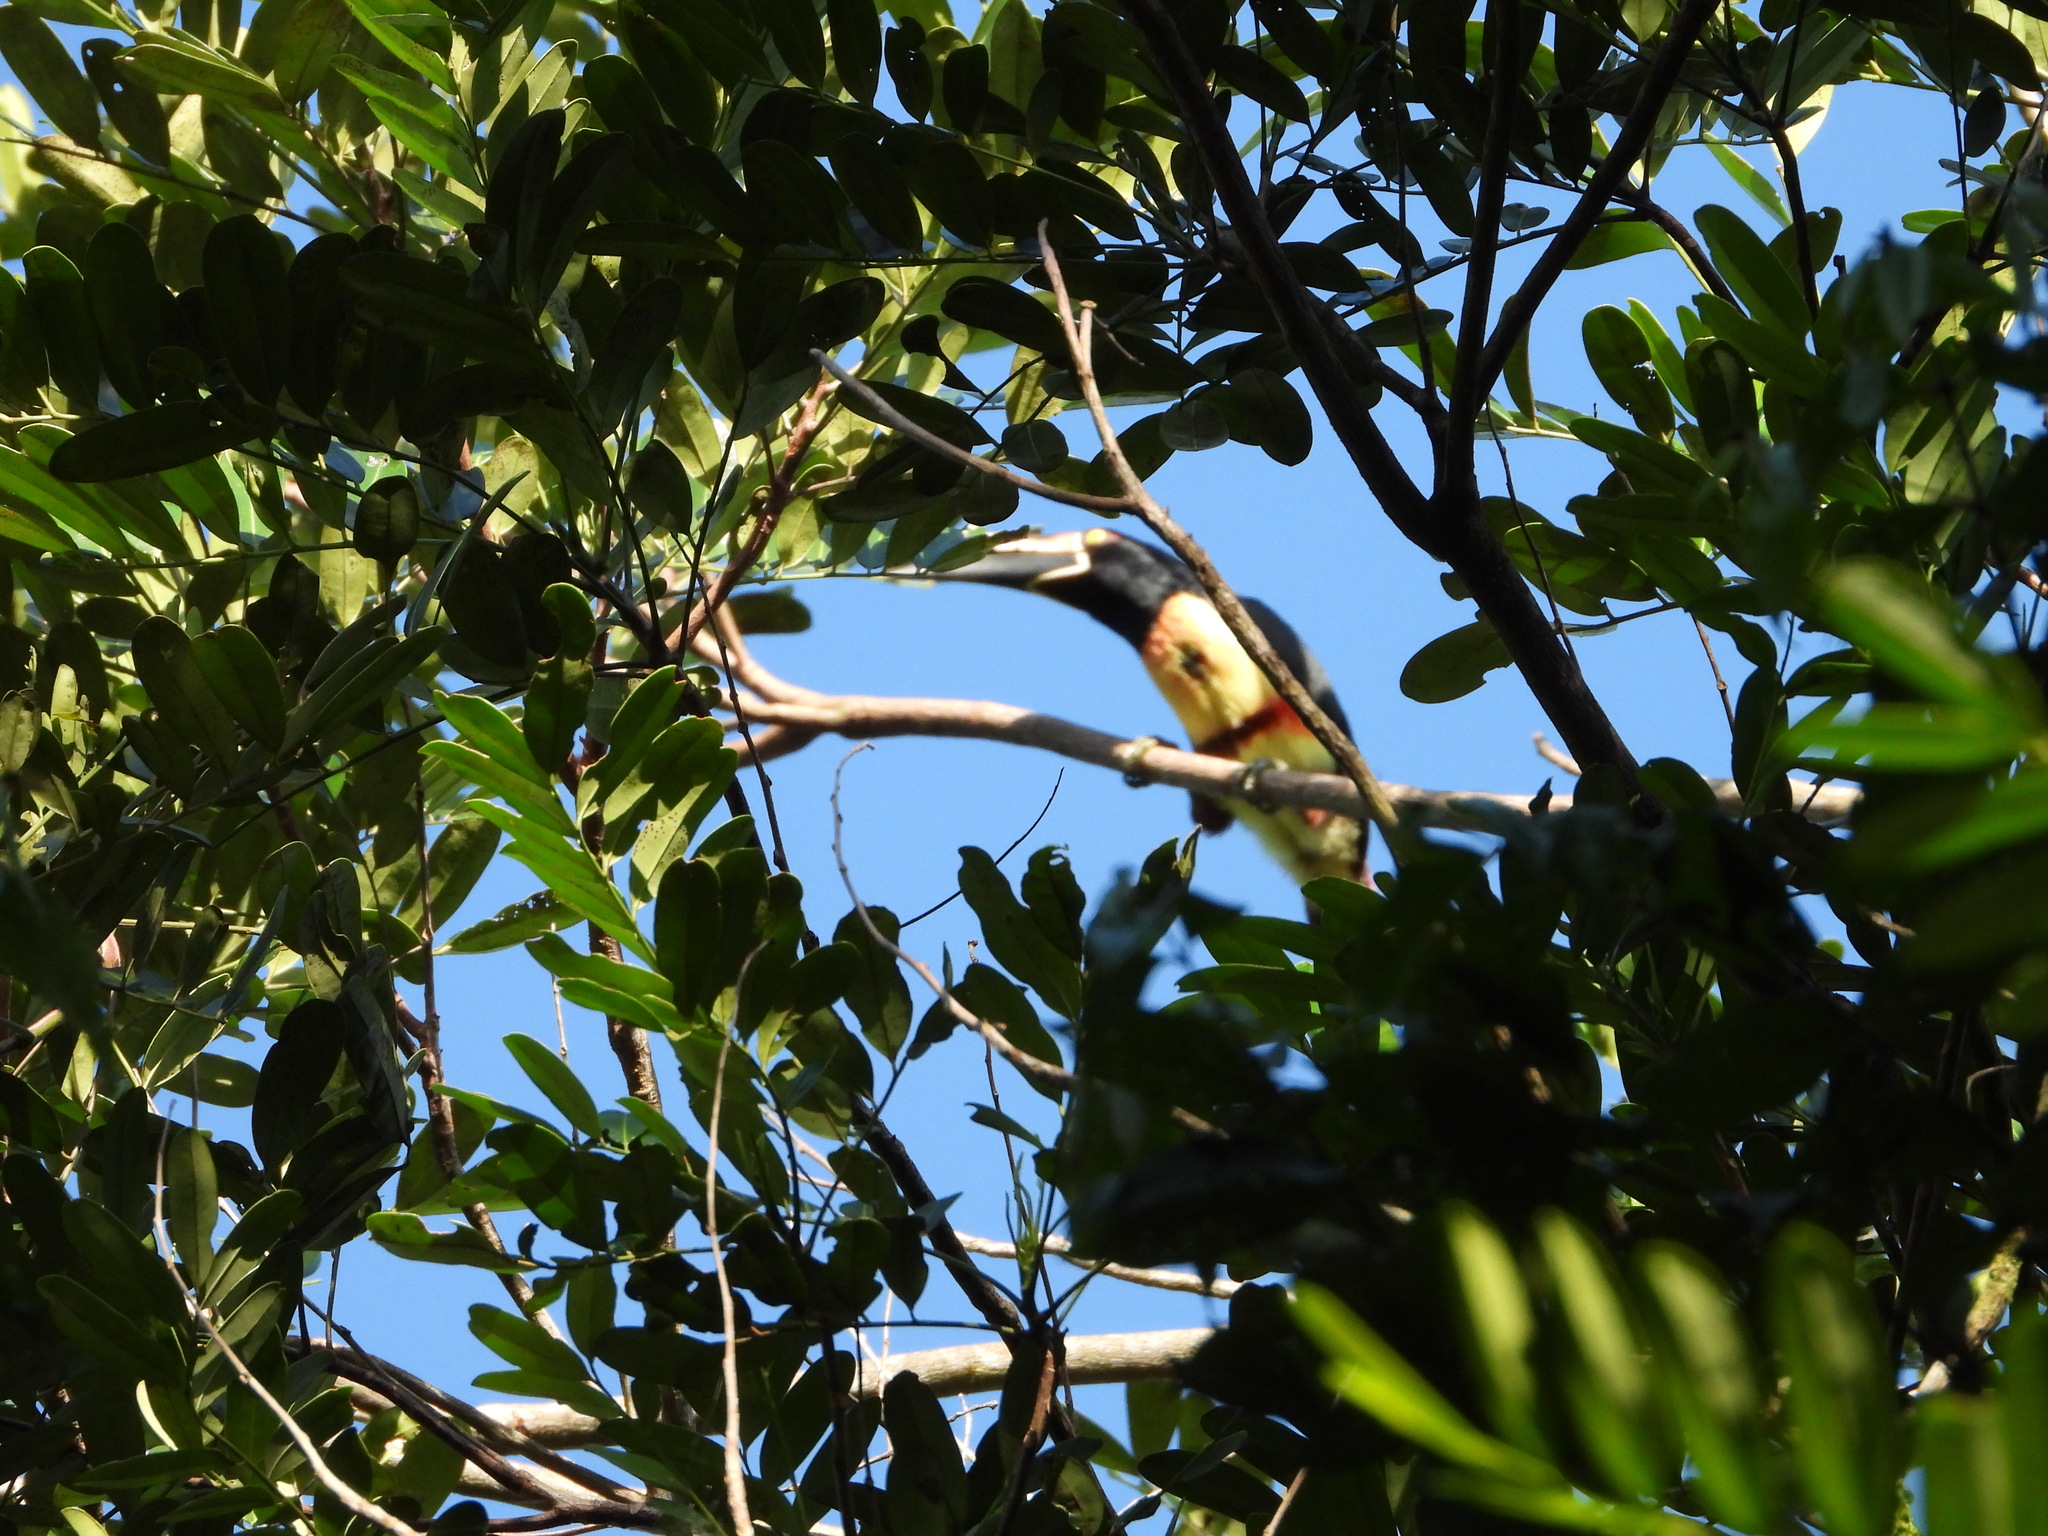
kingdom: Animalia
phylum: Chordata
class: Aves
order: Piciformes
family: Ramphastidae
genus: Pteroglossus
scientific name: Pteroglossus torquatus
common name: Collared aracari
